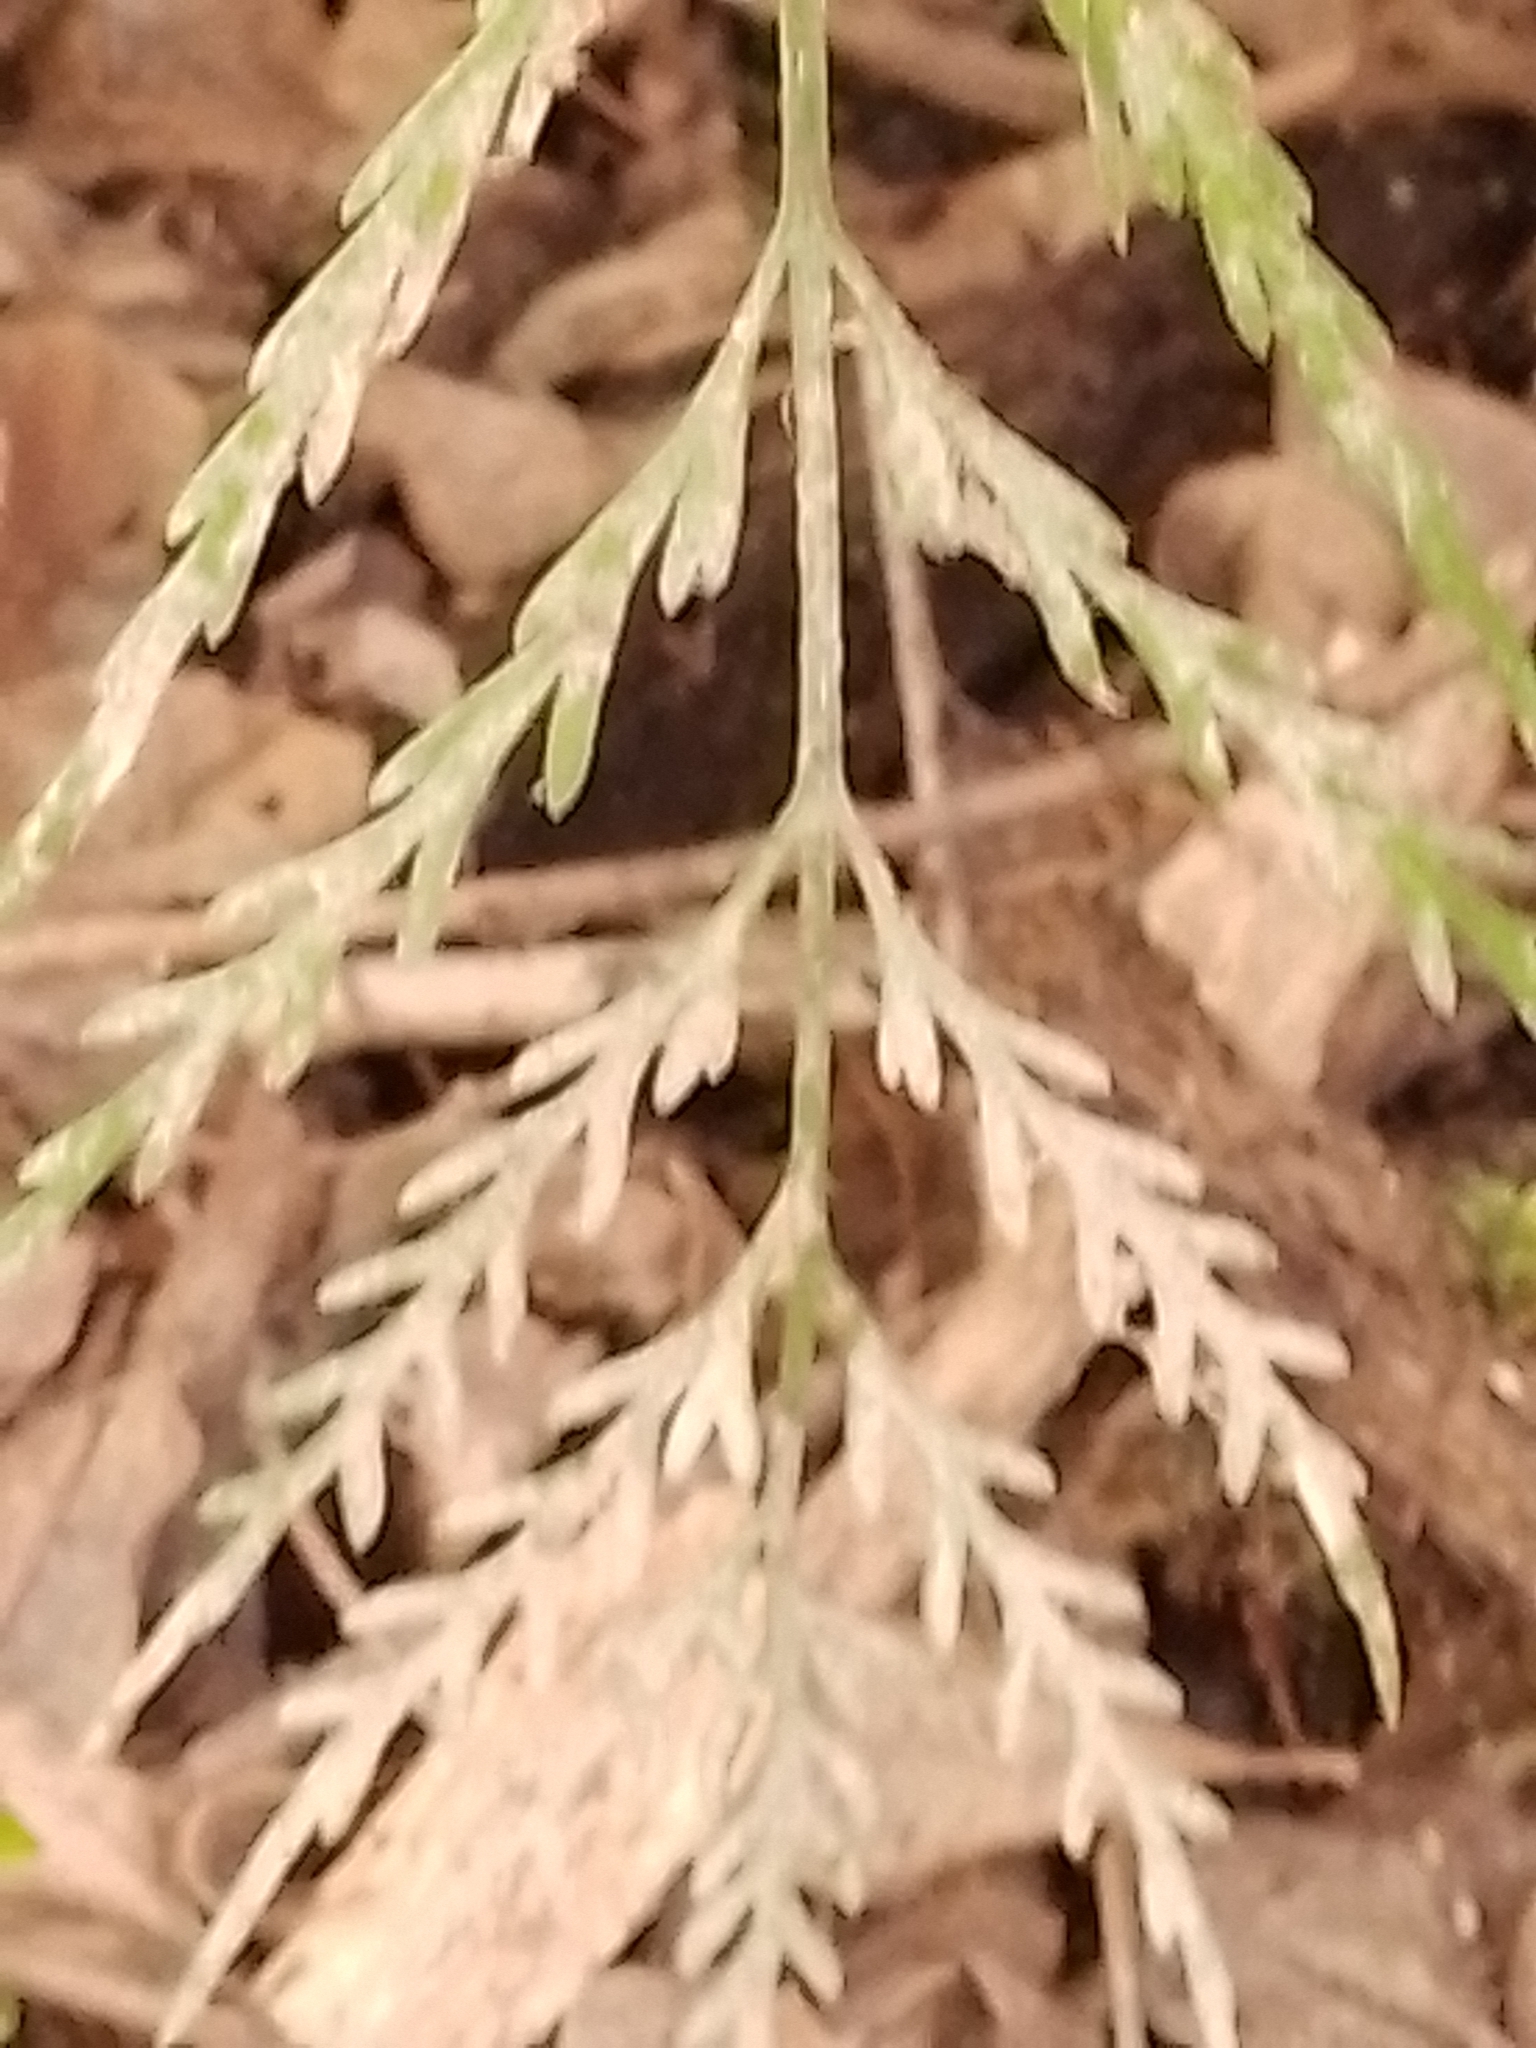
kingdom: Plantae
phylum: Tracheophyta
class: Polypodiopsida
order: Polypodiales
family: Aspleniaceae
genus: Asplenium
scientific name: Asplenium flaccidum
